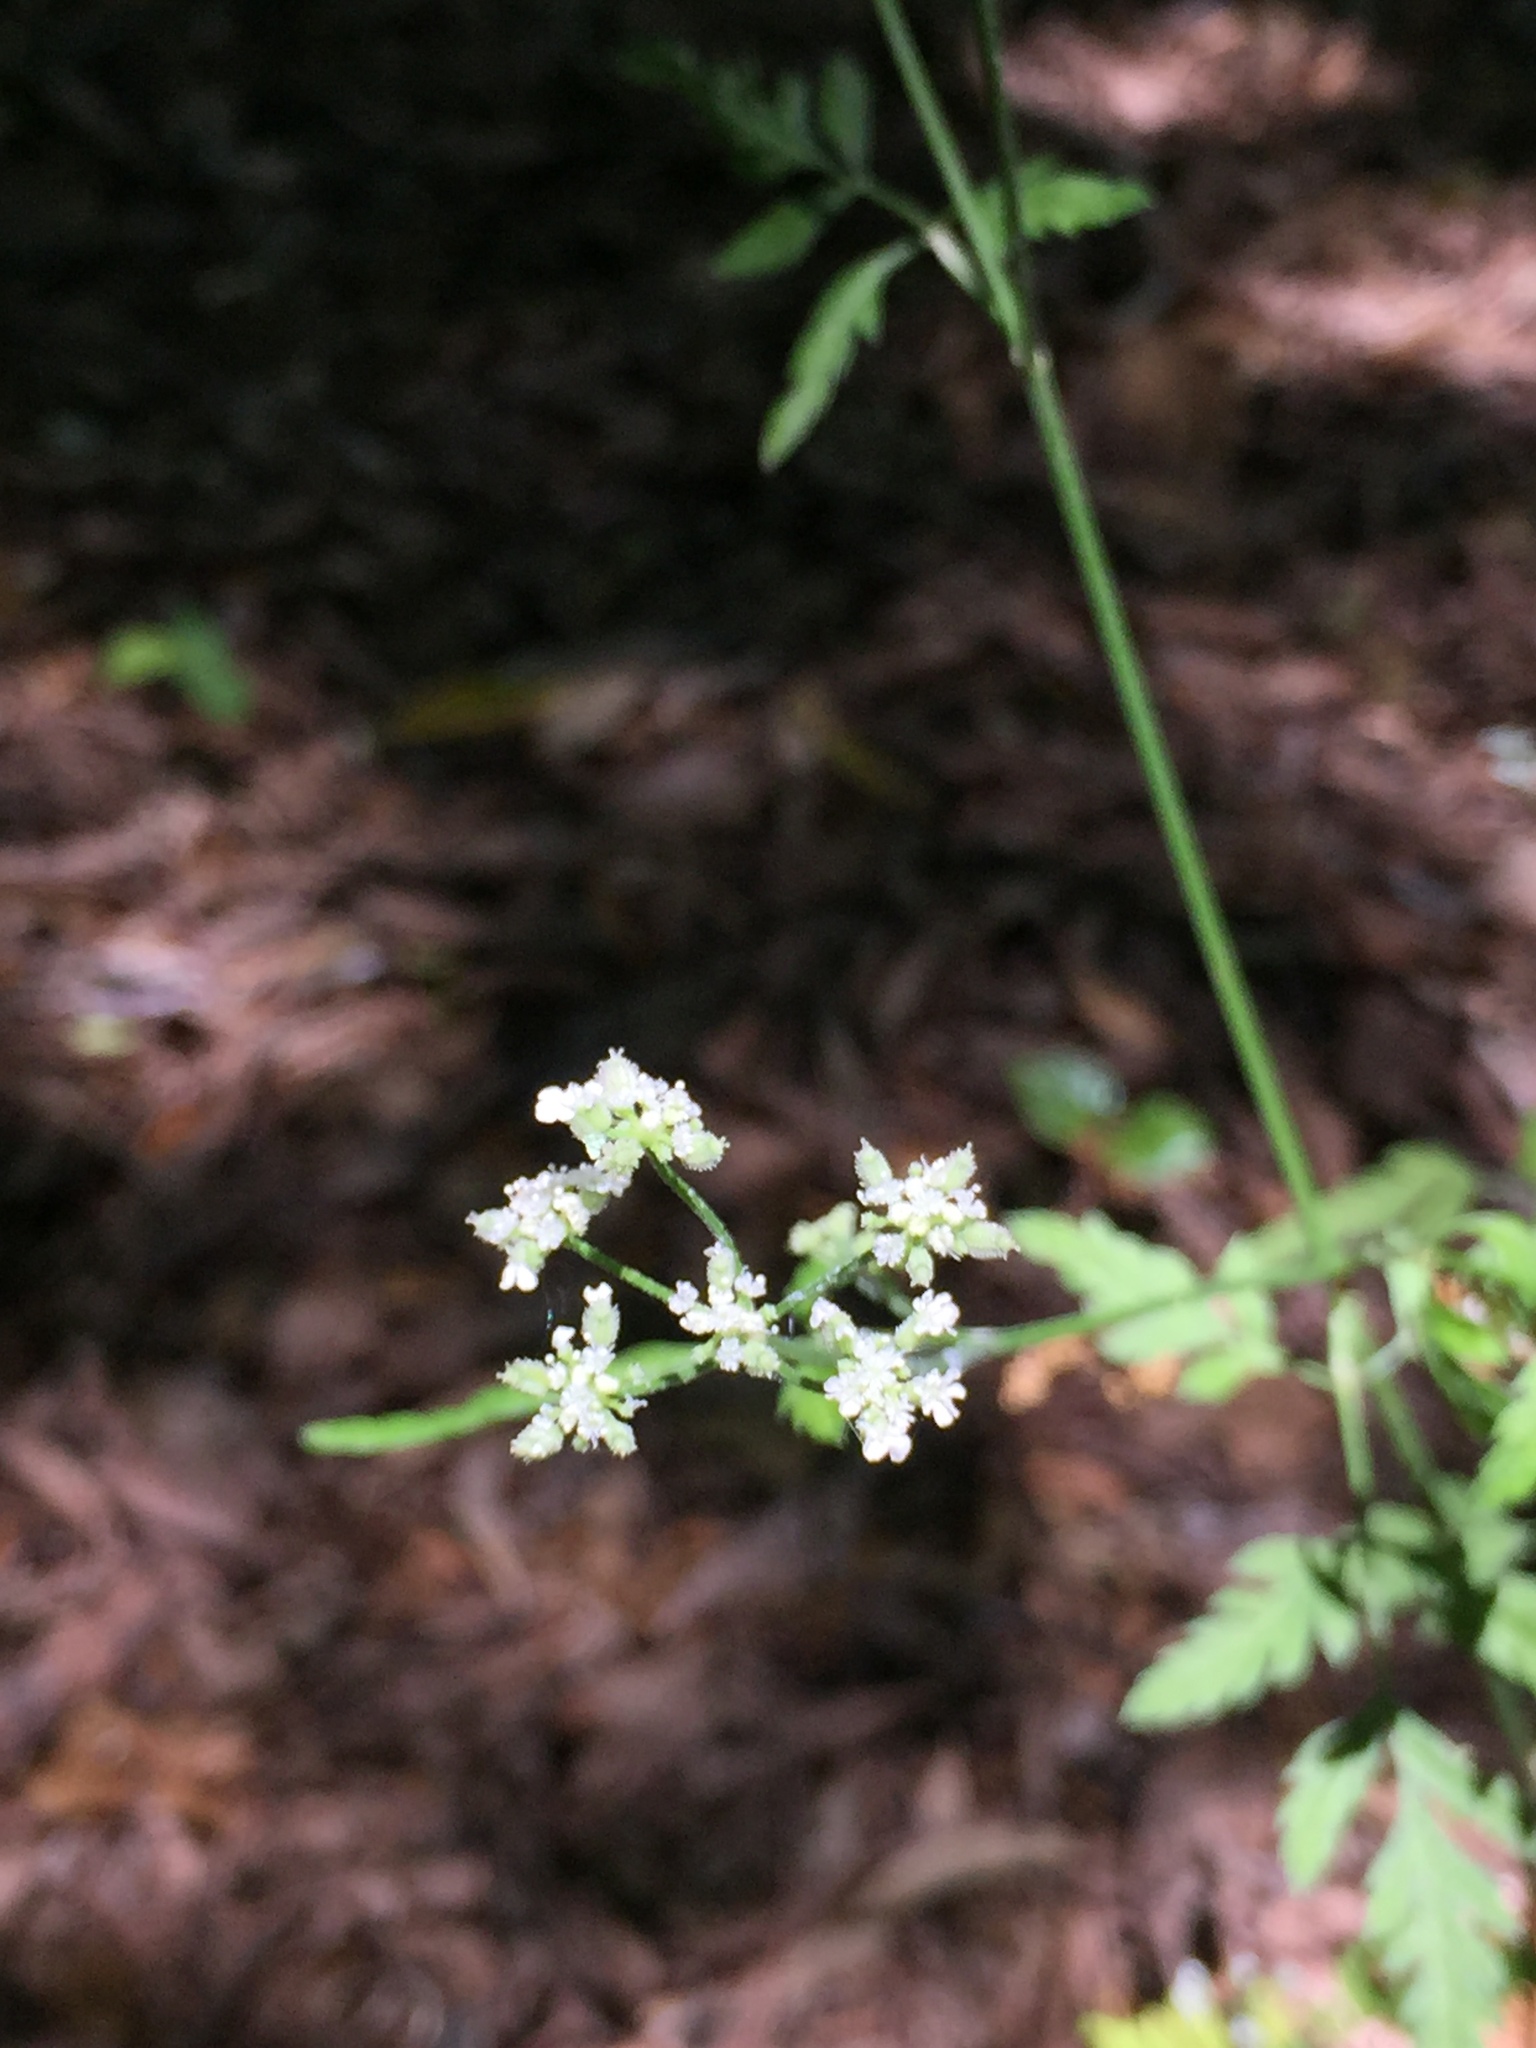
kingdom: Plantae
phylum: Tracheophyta
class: Magnoliopsida
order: Apiales
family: Apiaceae
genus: Torilis
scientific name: Torilis arvensis
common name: Spreading hedge-parsley
